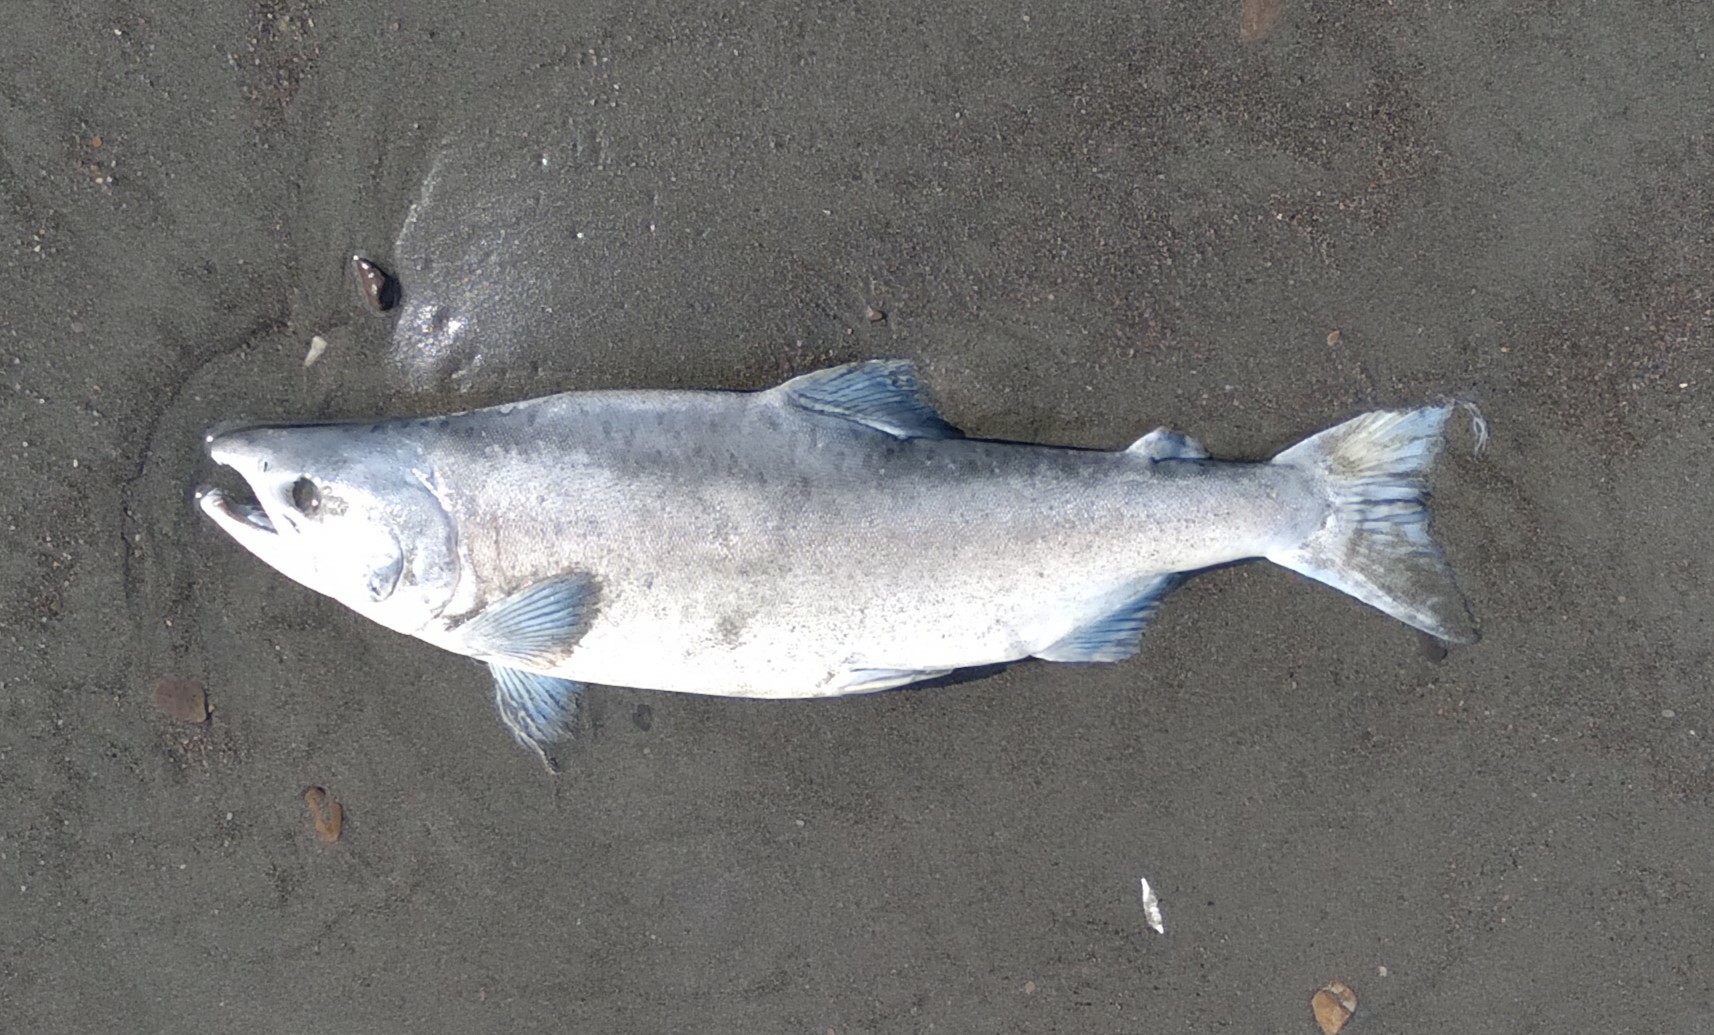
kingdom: Animalia
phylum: Chordata
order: Salmoniformes
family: Salmonidae
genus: Oncorhynchus
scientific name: Oncorhynchus gorbuscha
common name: Humpback salmon
